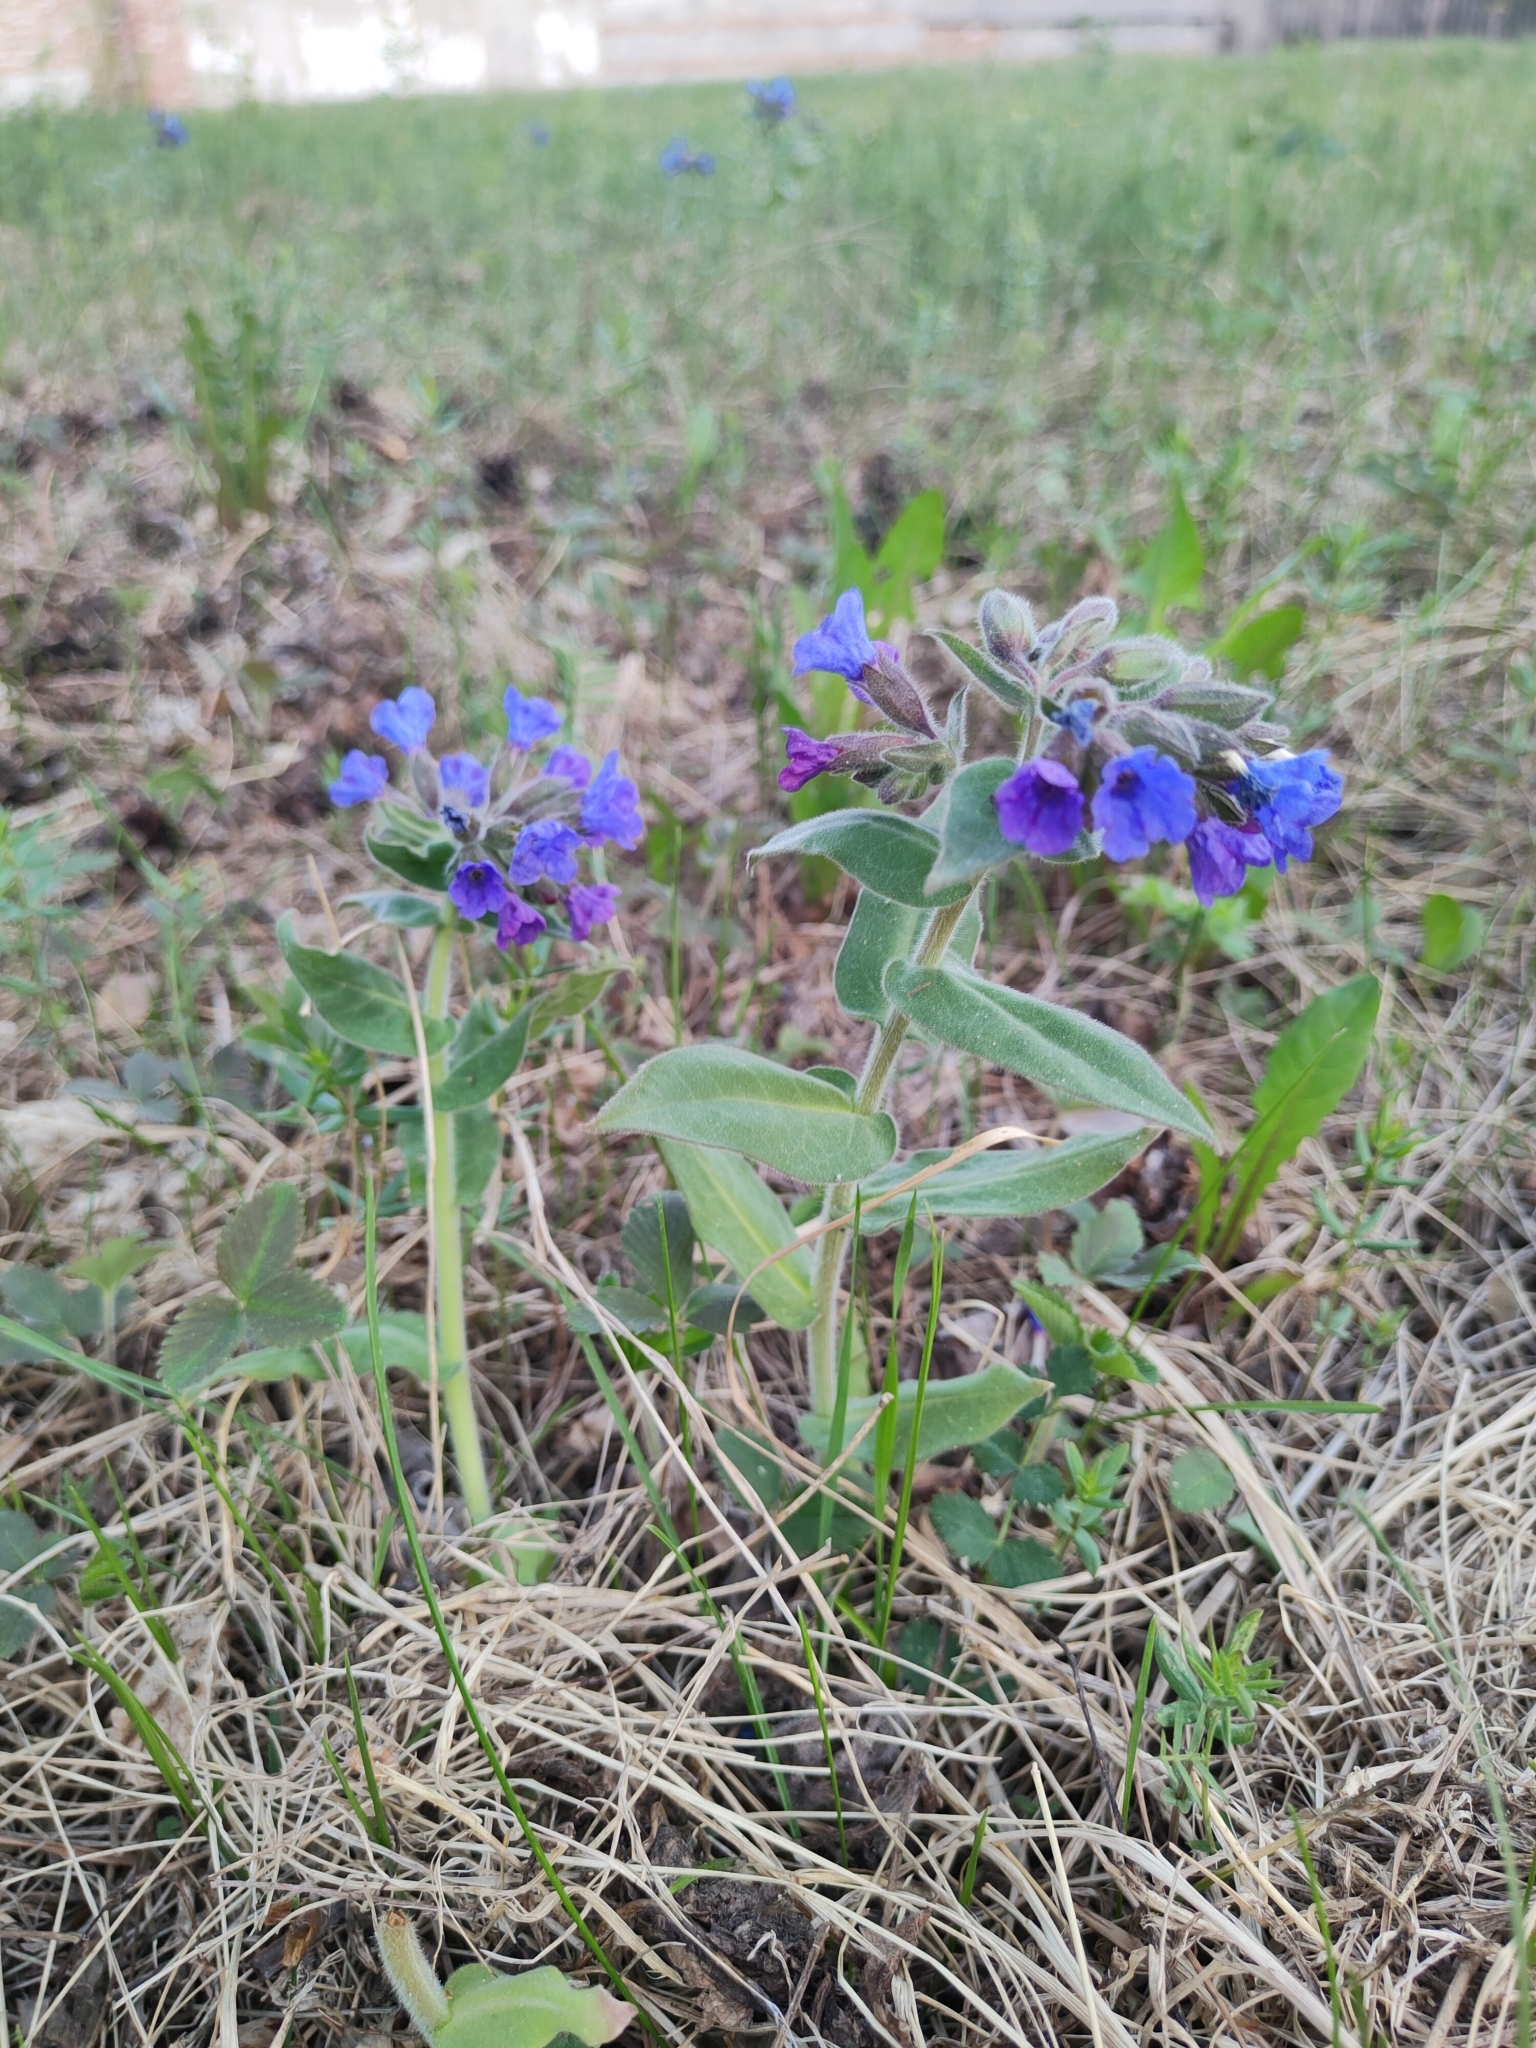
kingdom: Plantae
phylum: Tracheophyta
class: Magnoliopsida
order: Boraginales
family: Boraginaceae
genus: Pulmonaria
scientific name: Pulmonaria mollis
